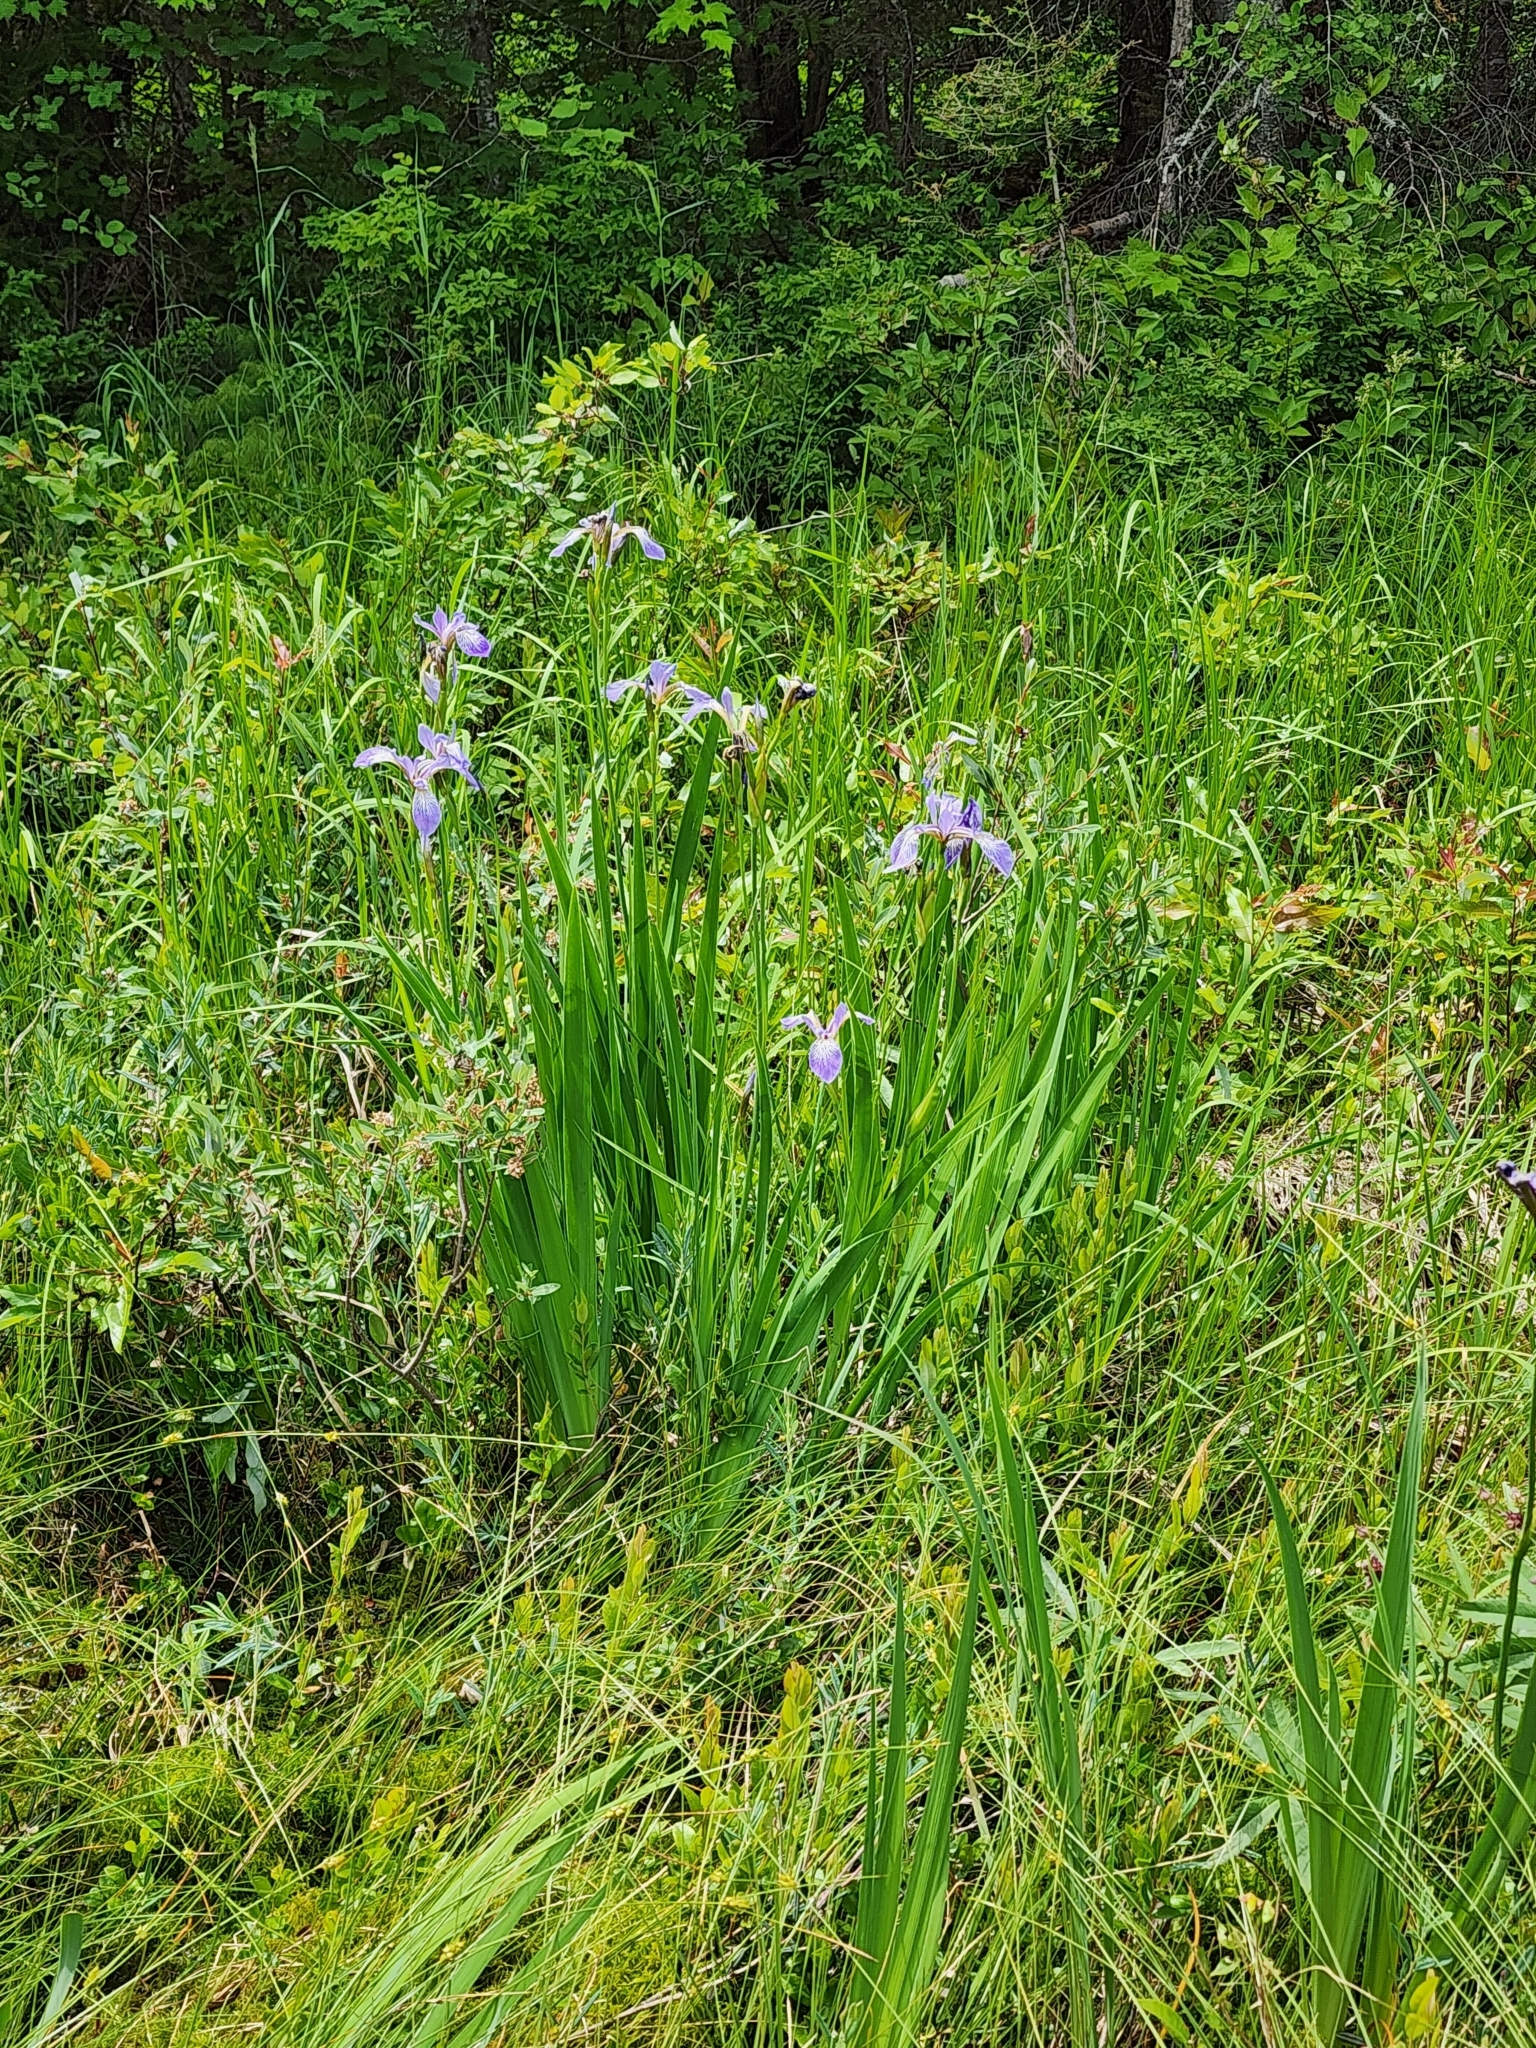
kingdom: Plantae
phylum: Tracheophyta
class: Liliopsida
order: Asparagales
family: Iridaceae
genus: Iris
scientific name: Iris versicolor
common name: Purple iris
